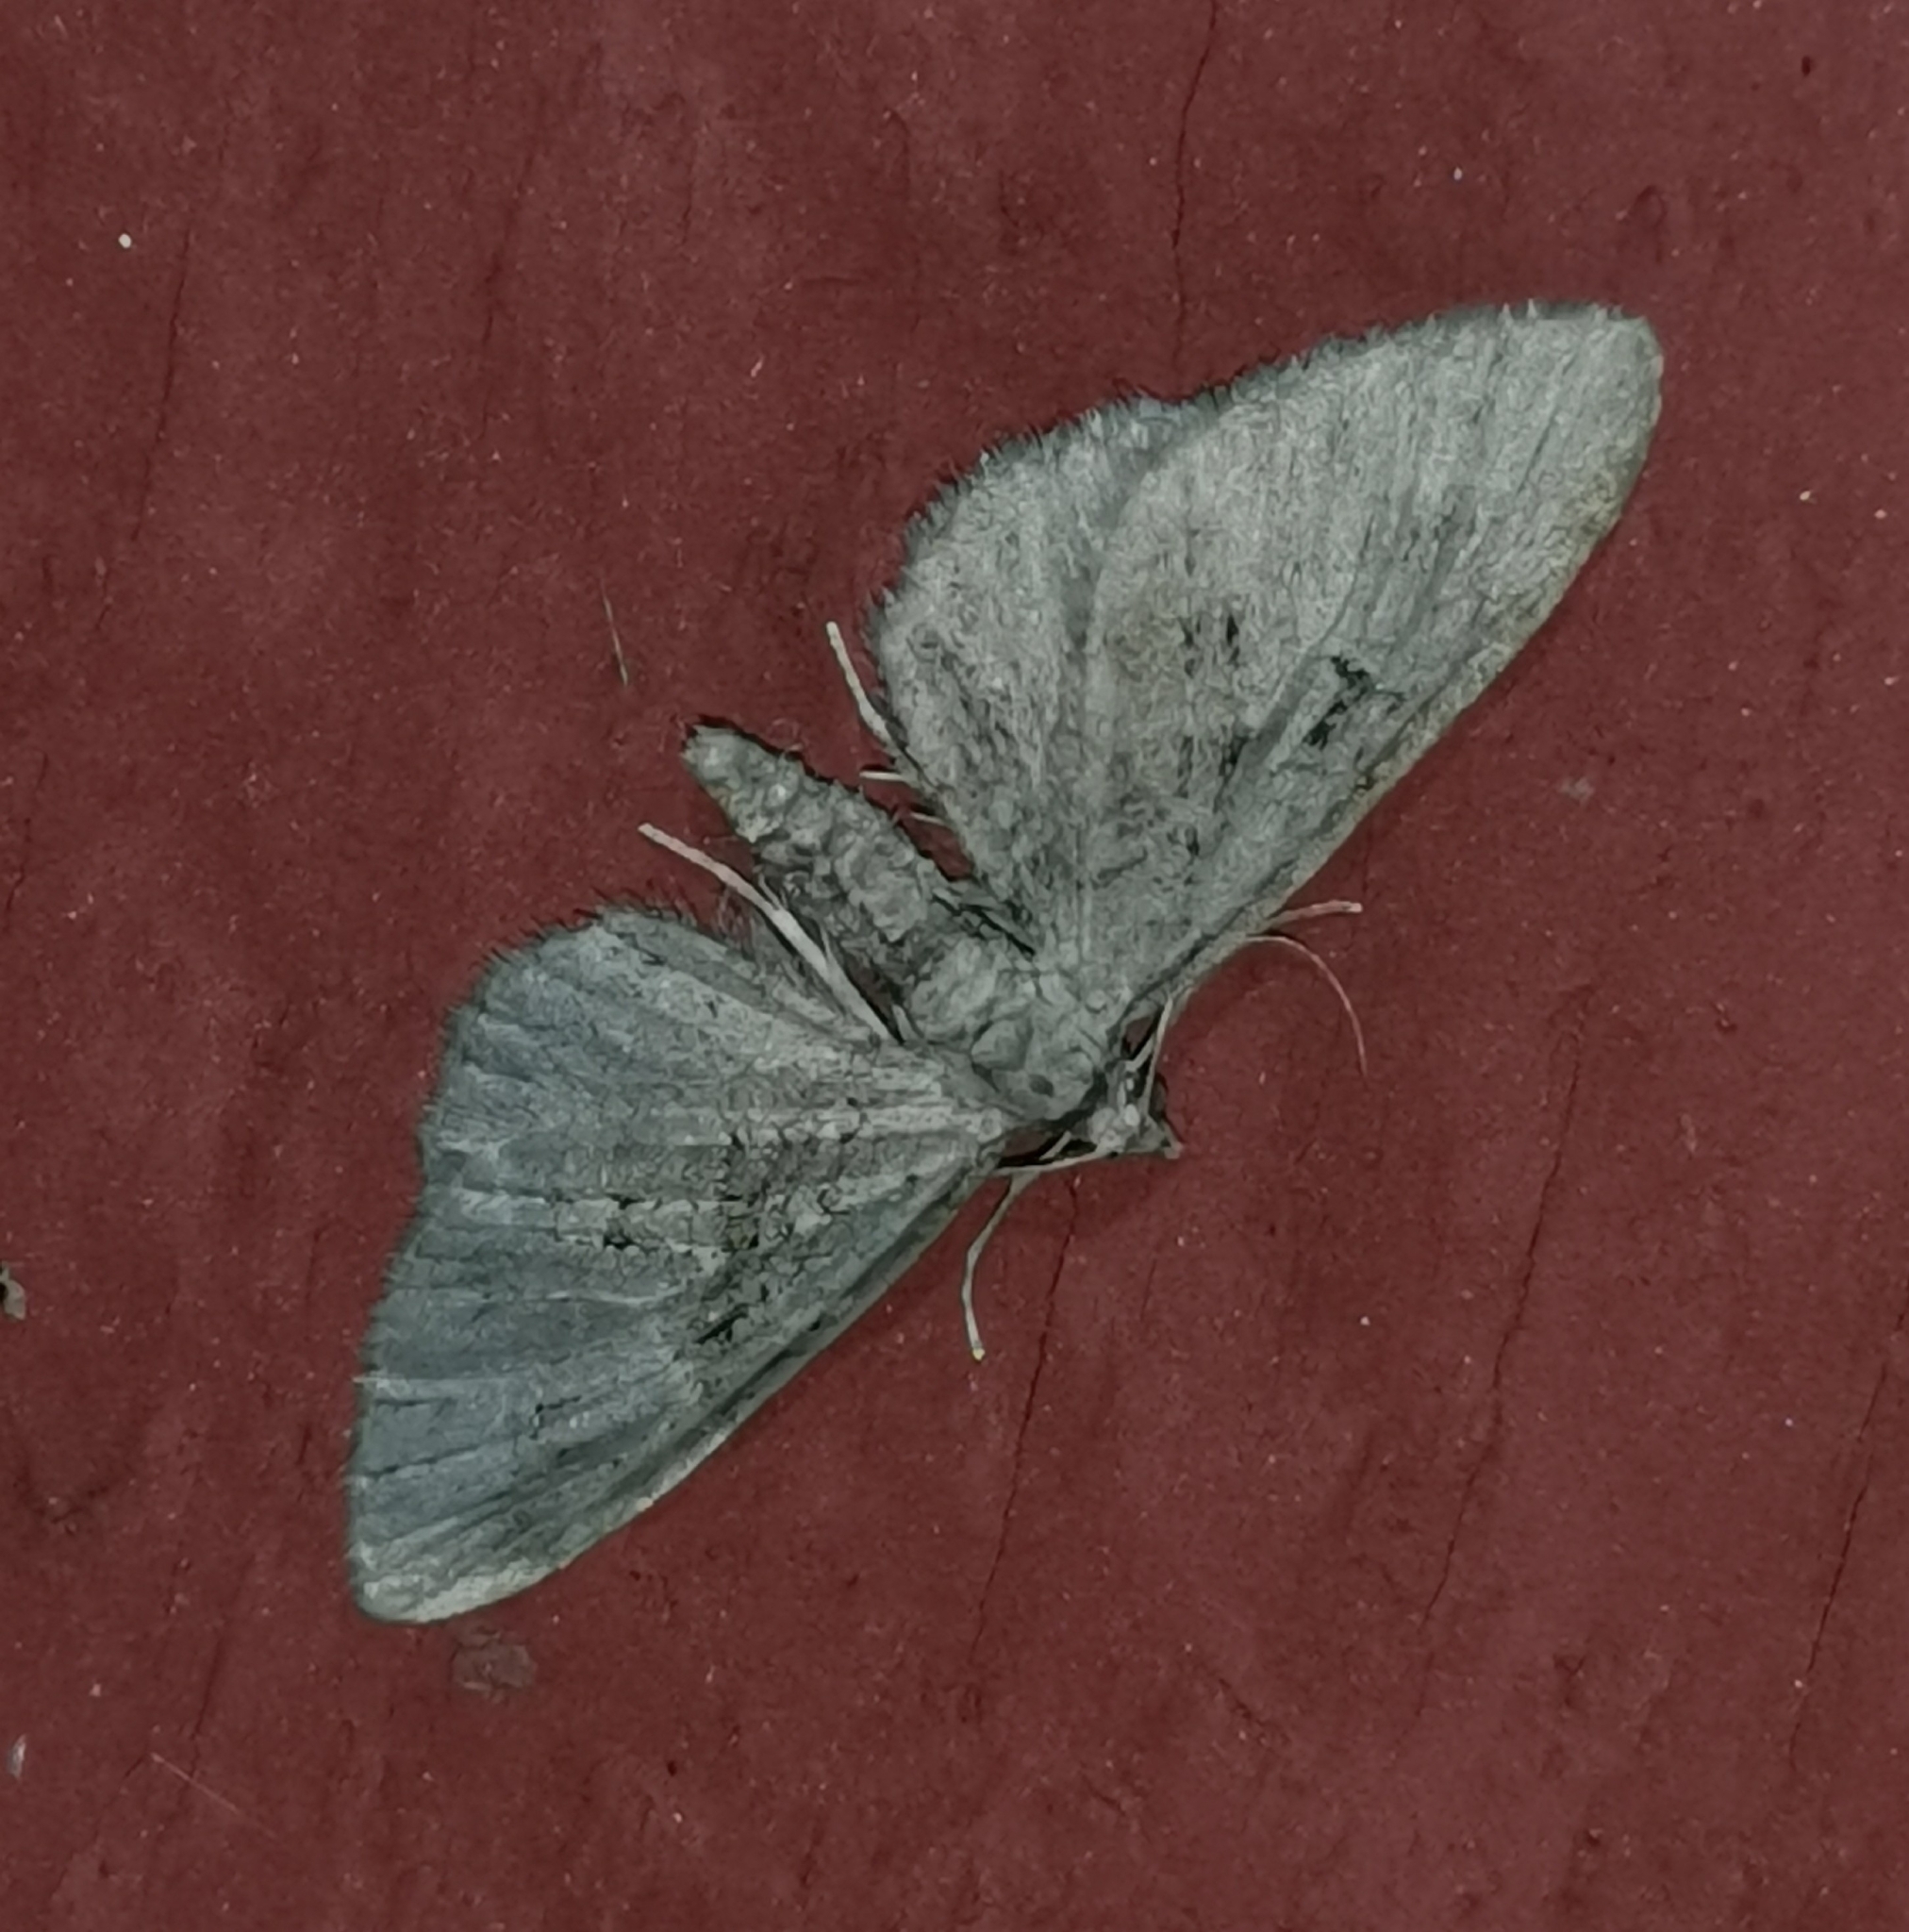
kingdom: Animalia
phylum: Arthropoda
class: Insecta
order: Lepidoptera
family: Geometridae
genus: Eupithecia
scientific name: Eupithecia pusillata
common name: Juniper pug
